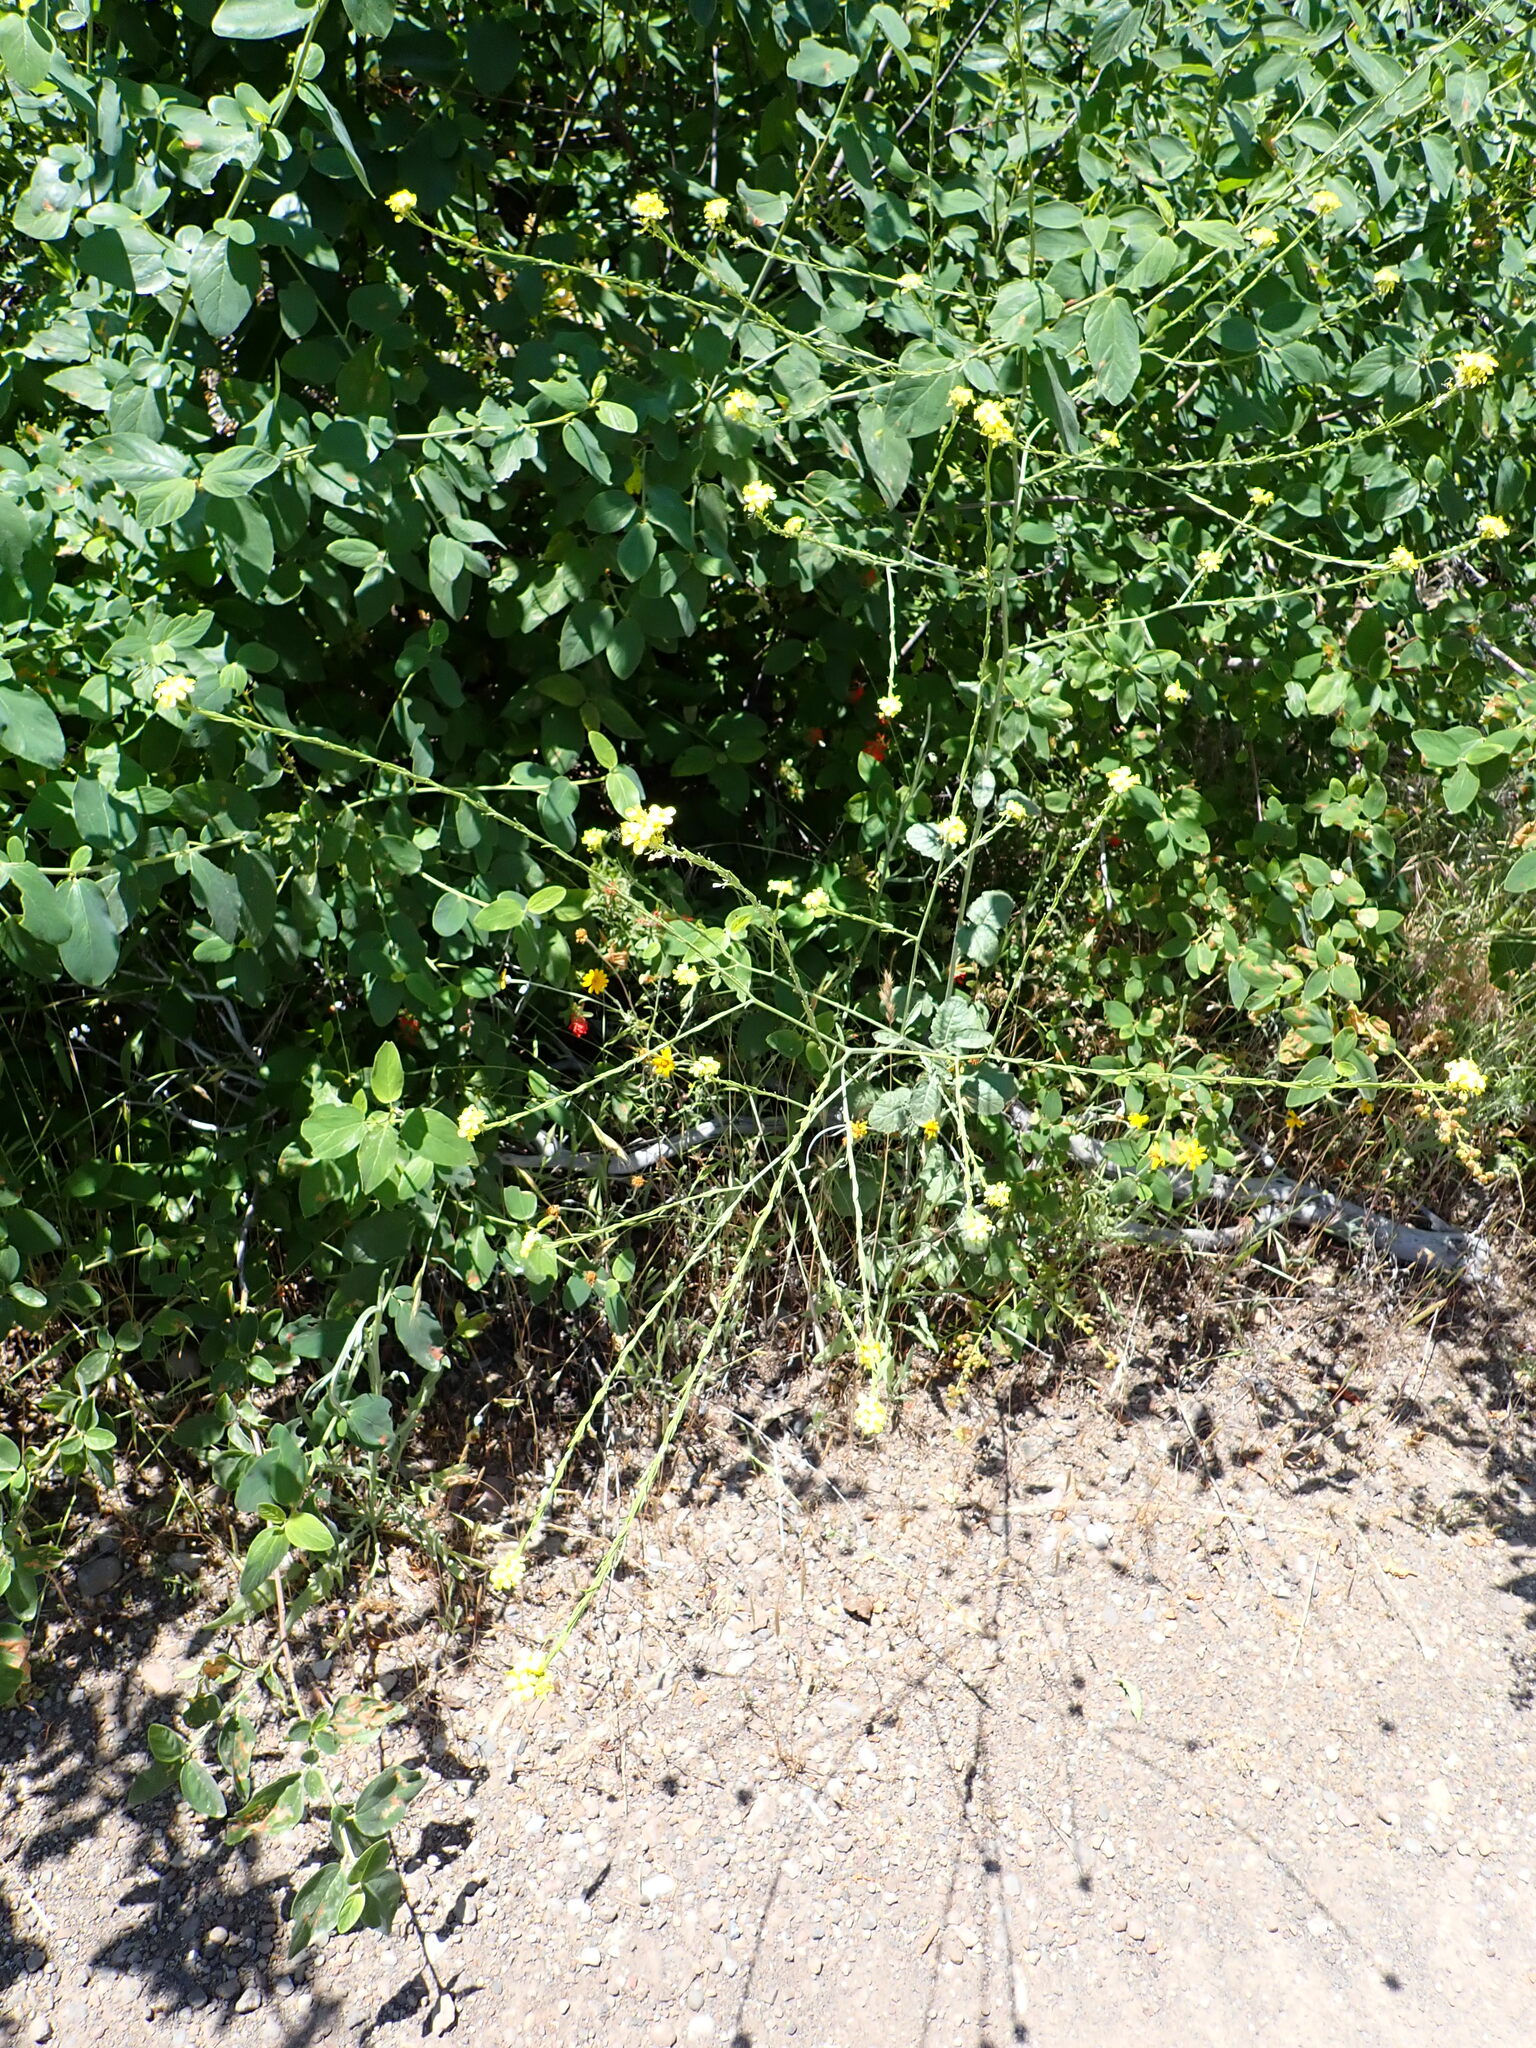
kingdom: Plantae
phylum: Tracheophyta
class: Magnoliopsida
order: Brassicales
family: Brassicaceae
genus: Hirschfeldia
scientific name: Hirschfeldia incana
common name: Hoary mustard
